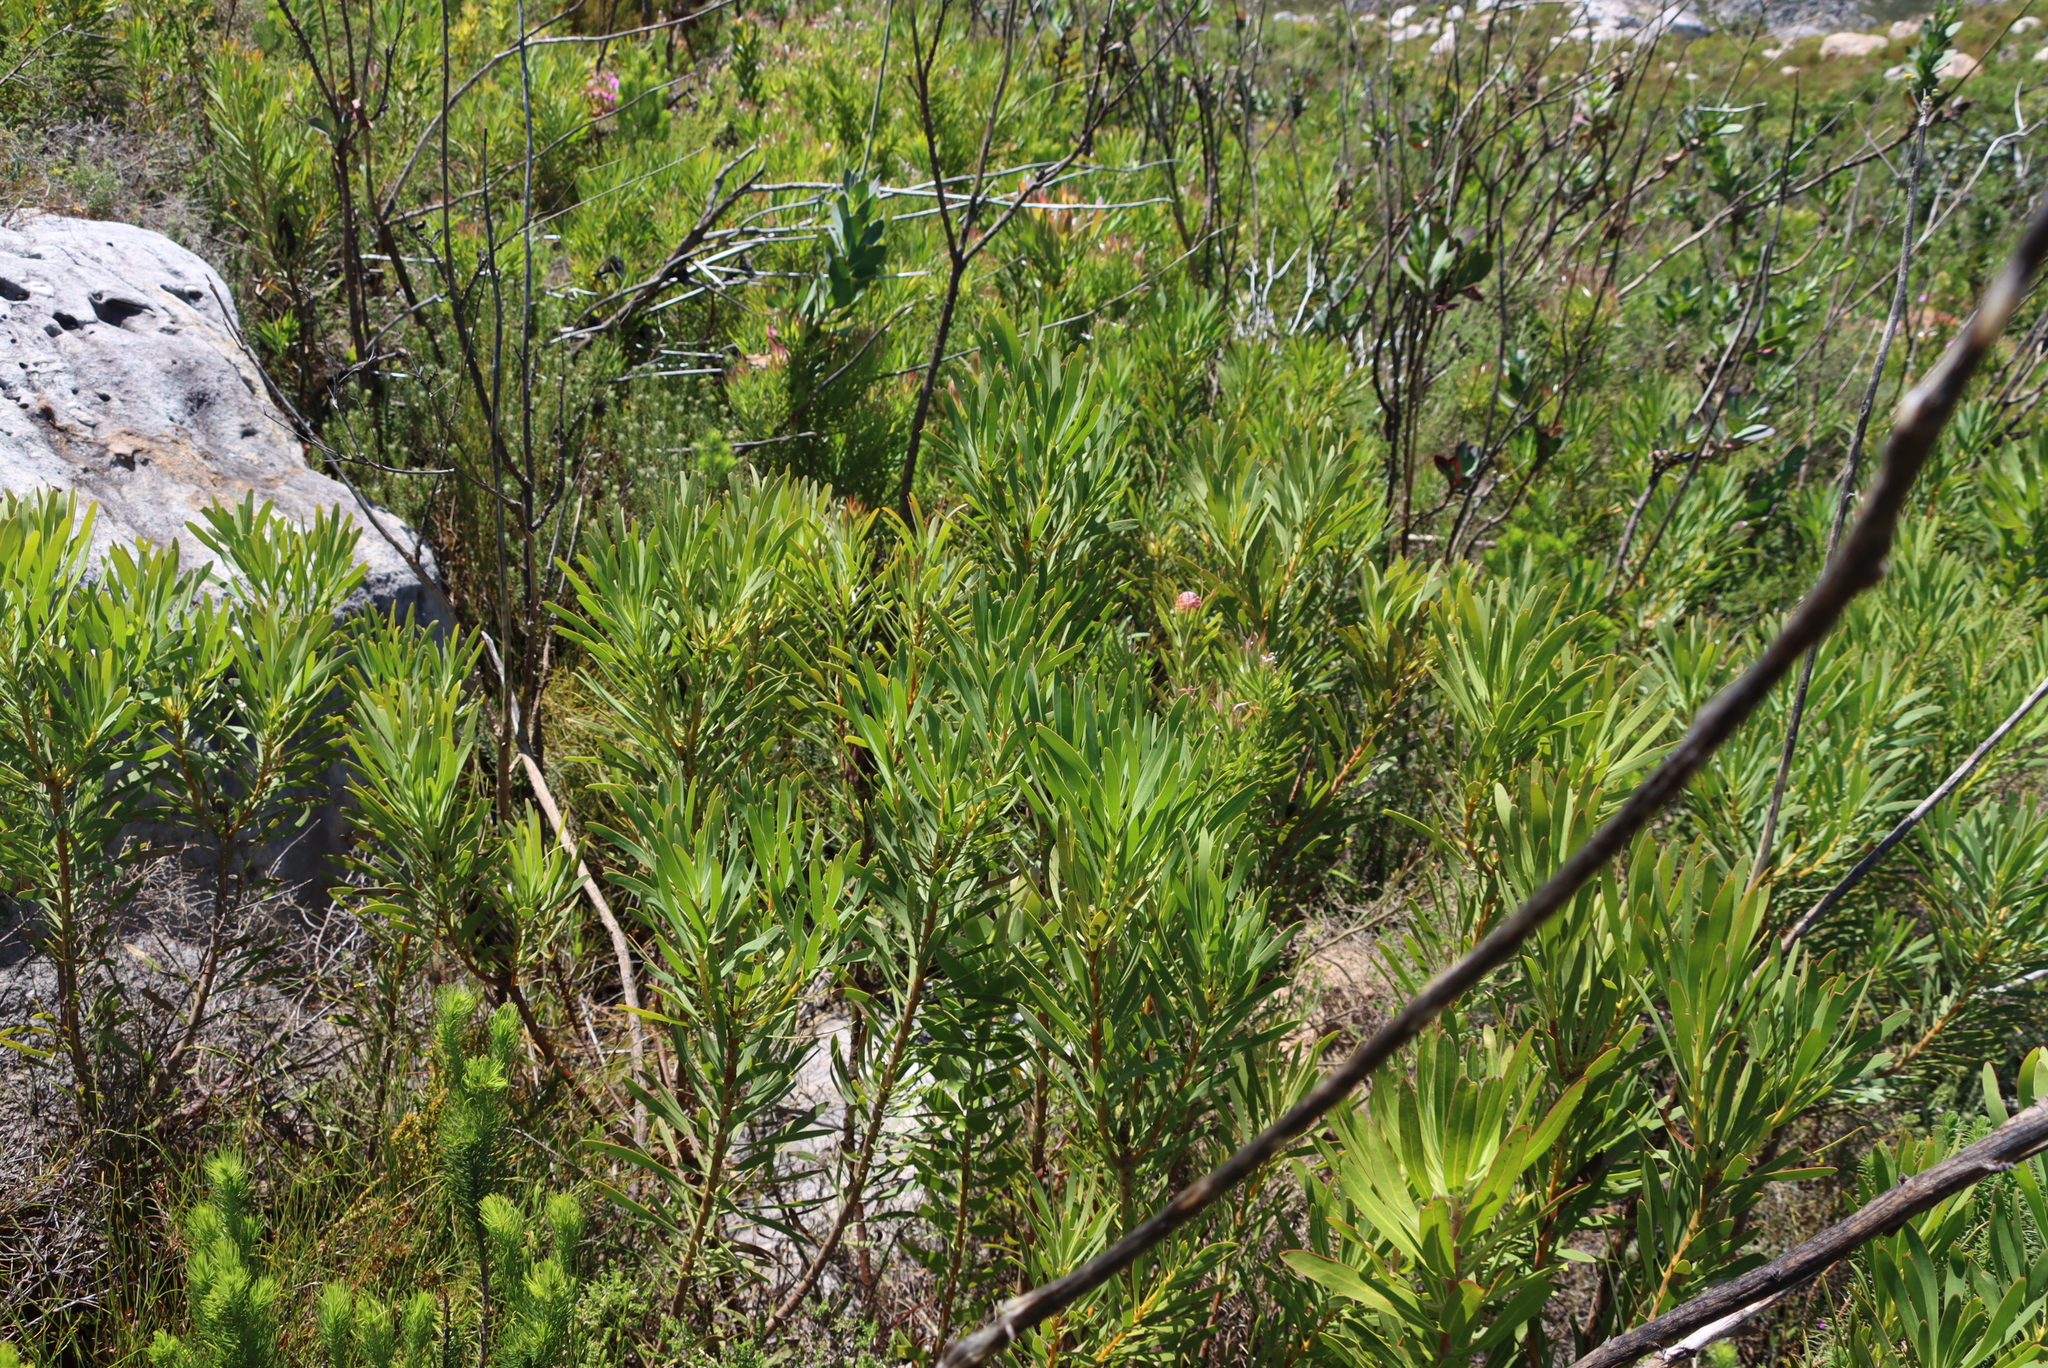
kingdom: Plantae
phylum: Tracheophyta
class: Magnoliopsida
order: Proteales
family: Proteaceae
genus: Protea
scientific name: Protea repens
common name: Sugarbush
